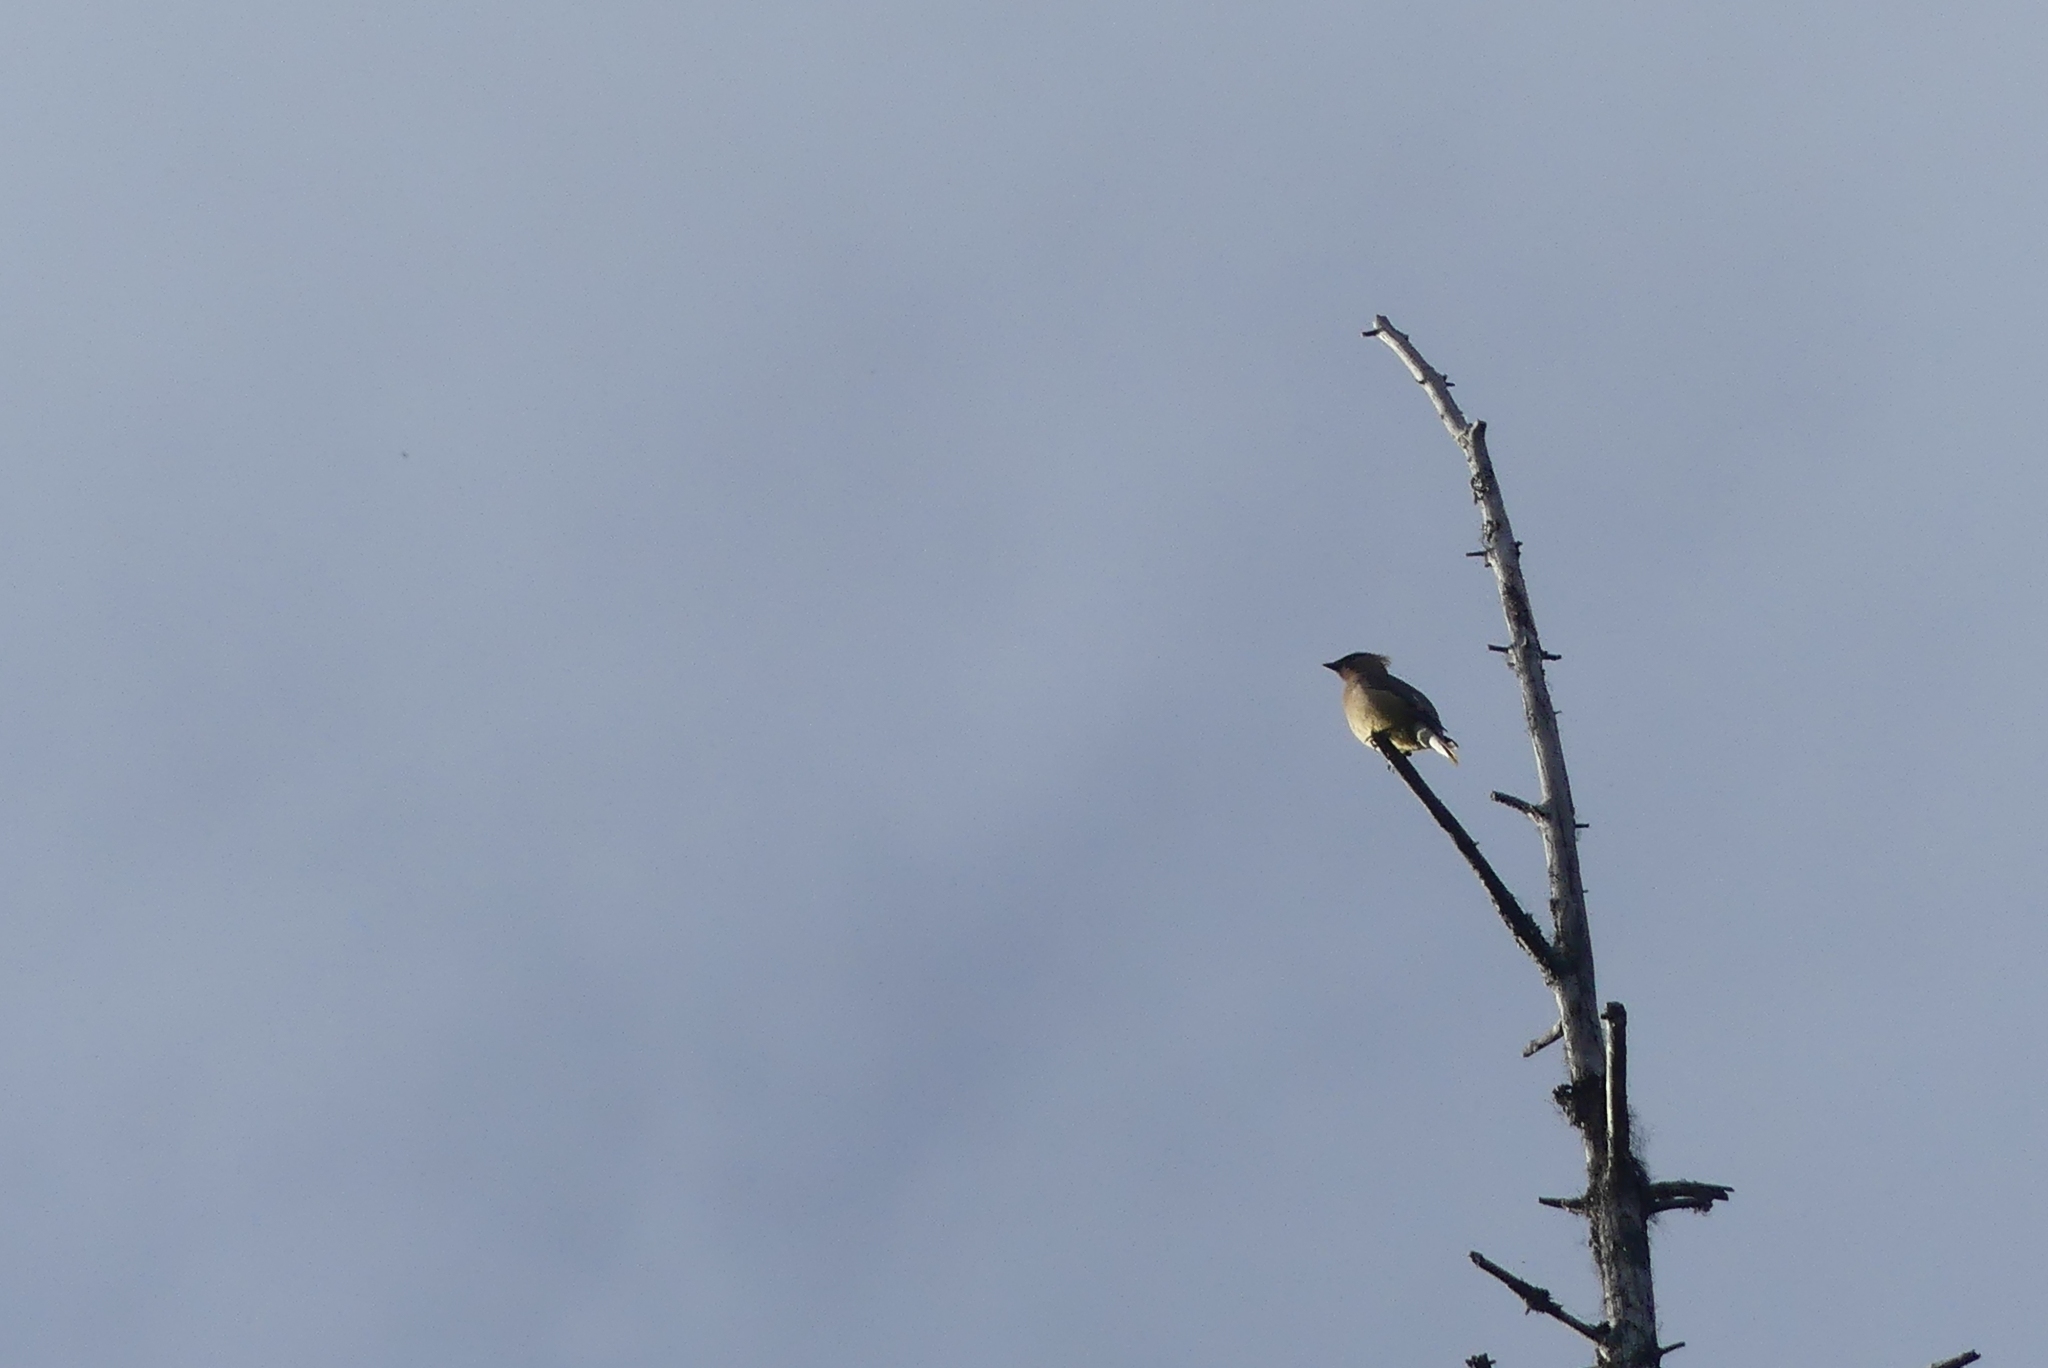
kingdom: Animalia
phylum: Chordata
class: Aves
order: Passeriformes
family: Bombycillidae
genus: Bombycilla
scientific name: Bombycilla cedrorum
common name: Cedar waxwing
